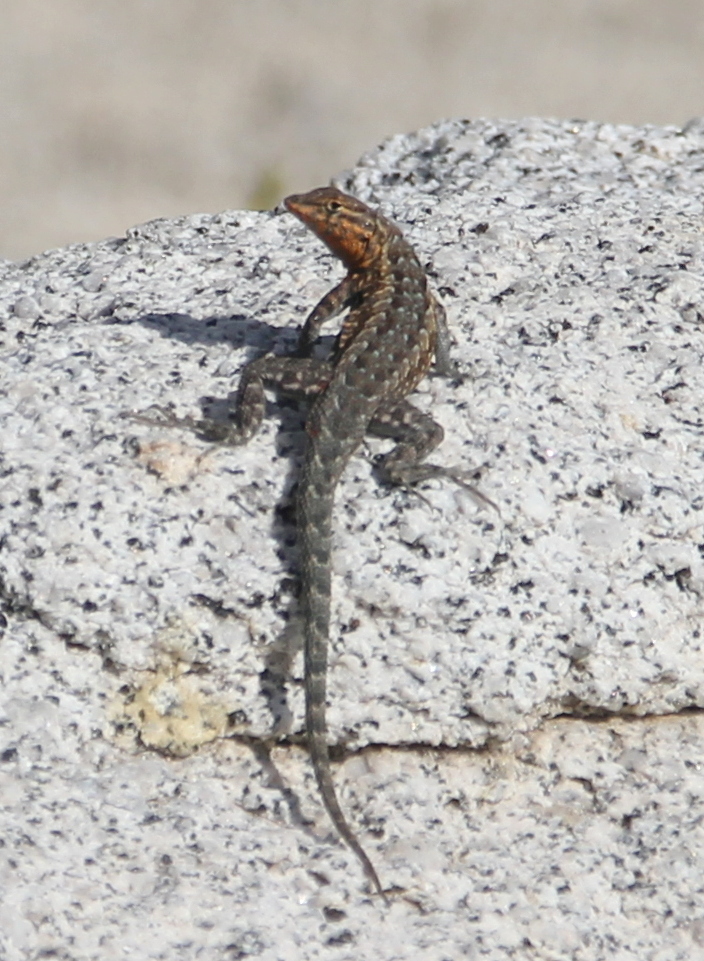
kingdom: Animalia
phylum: Chordata
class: Squamata
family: Phrynosomatidae
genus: Uta
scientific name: Uta stansburiana
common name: Side-blotched lizard
